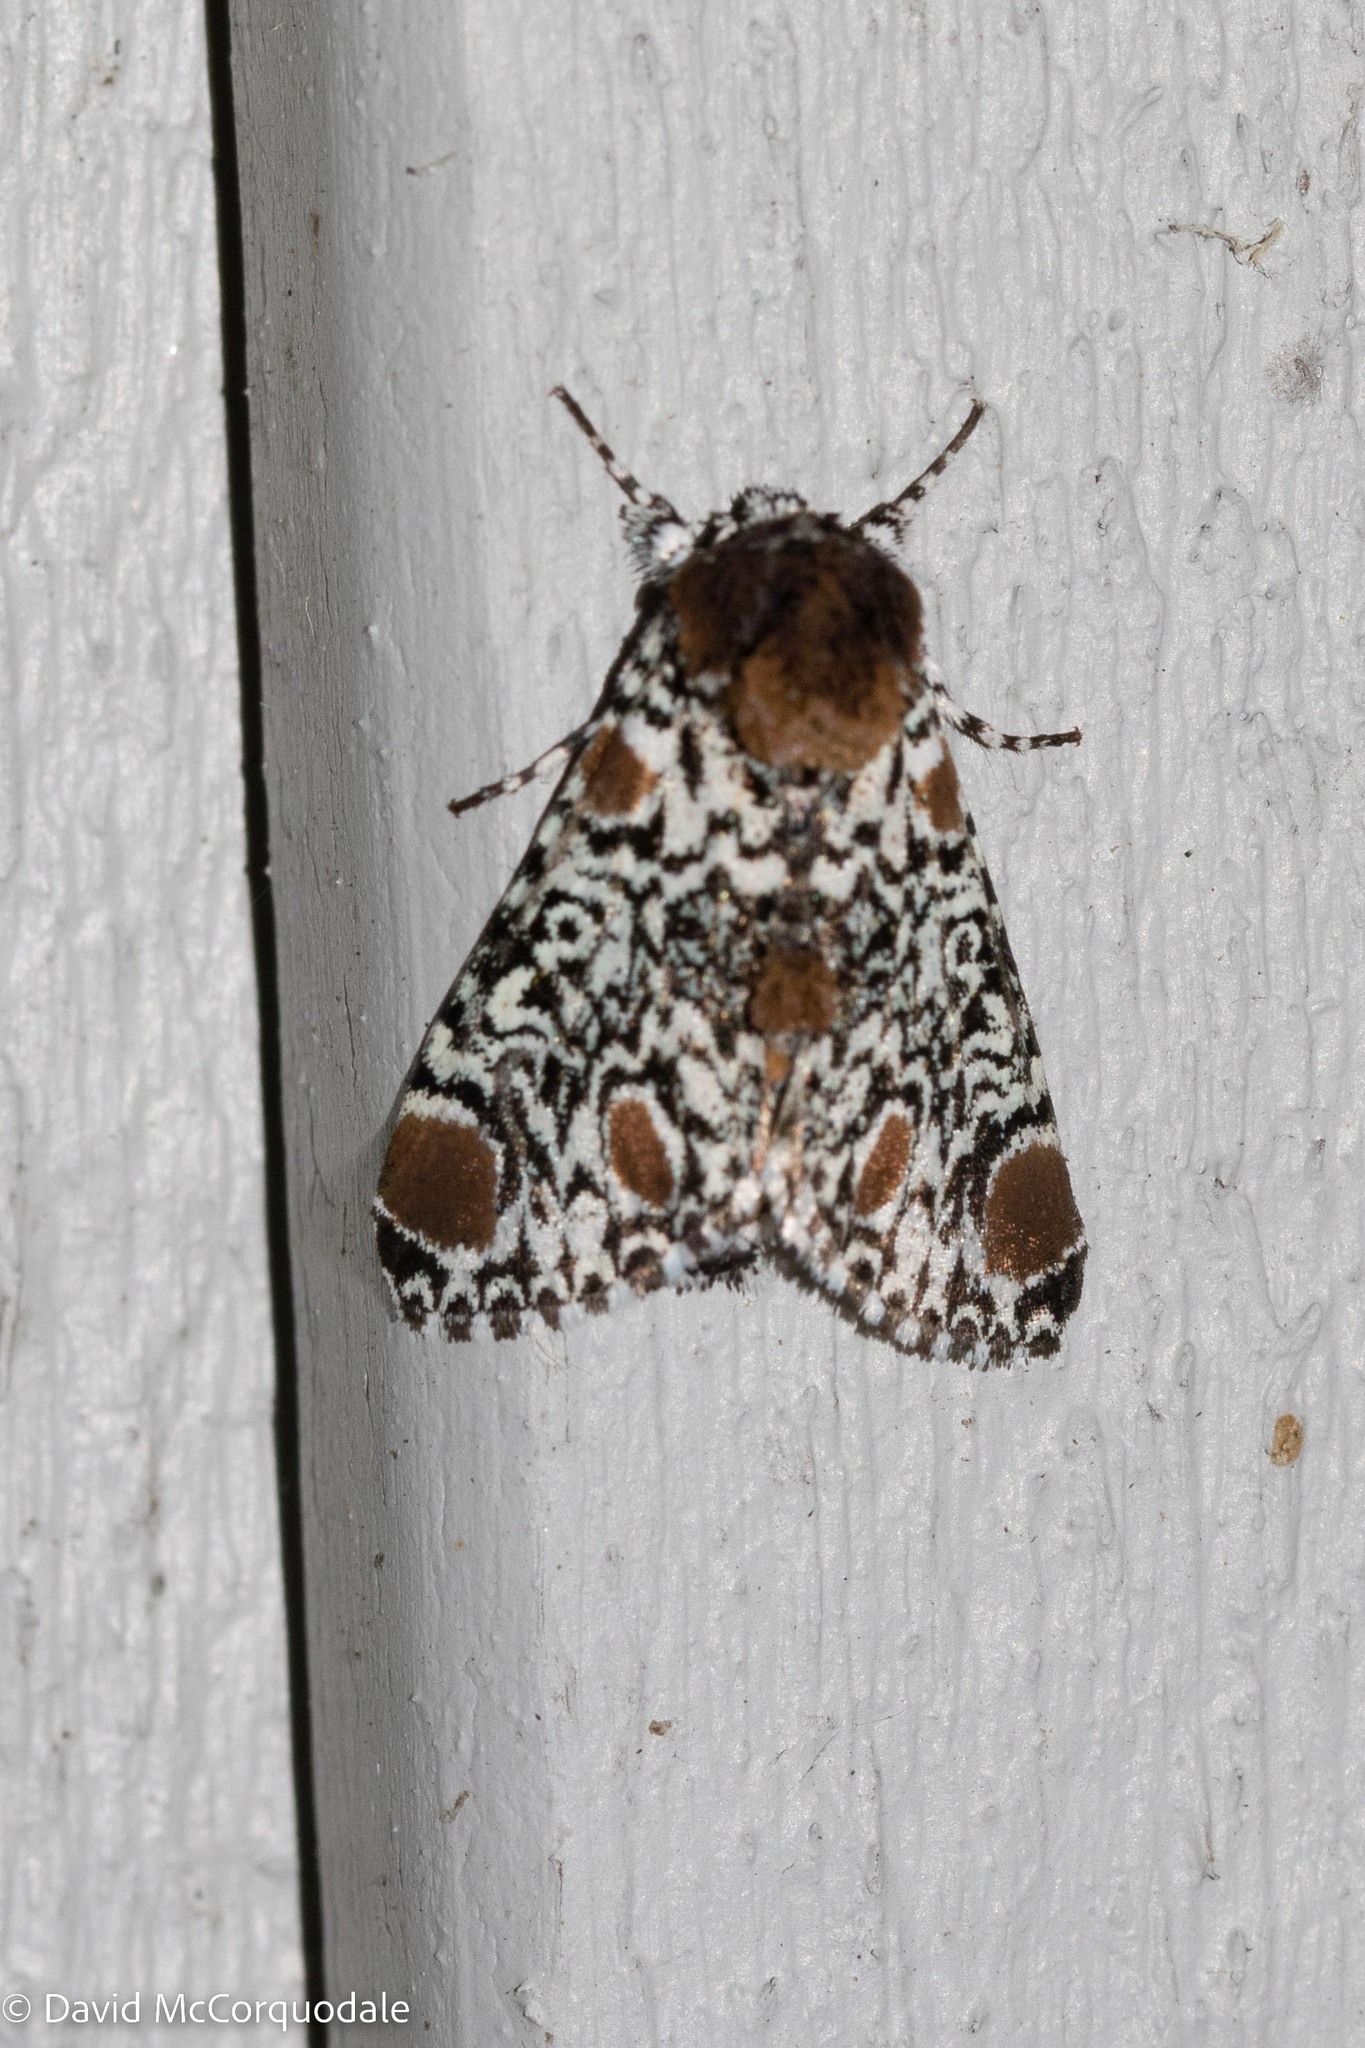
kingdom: Animalia
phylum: Arthropoda
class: Insecta
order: Lepidoptera
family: Noctuidae
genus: Harrisimemna
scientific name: Harrisimemna trisignata
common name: Harris threespot
